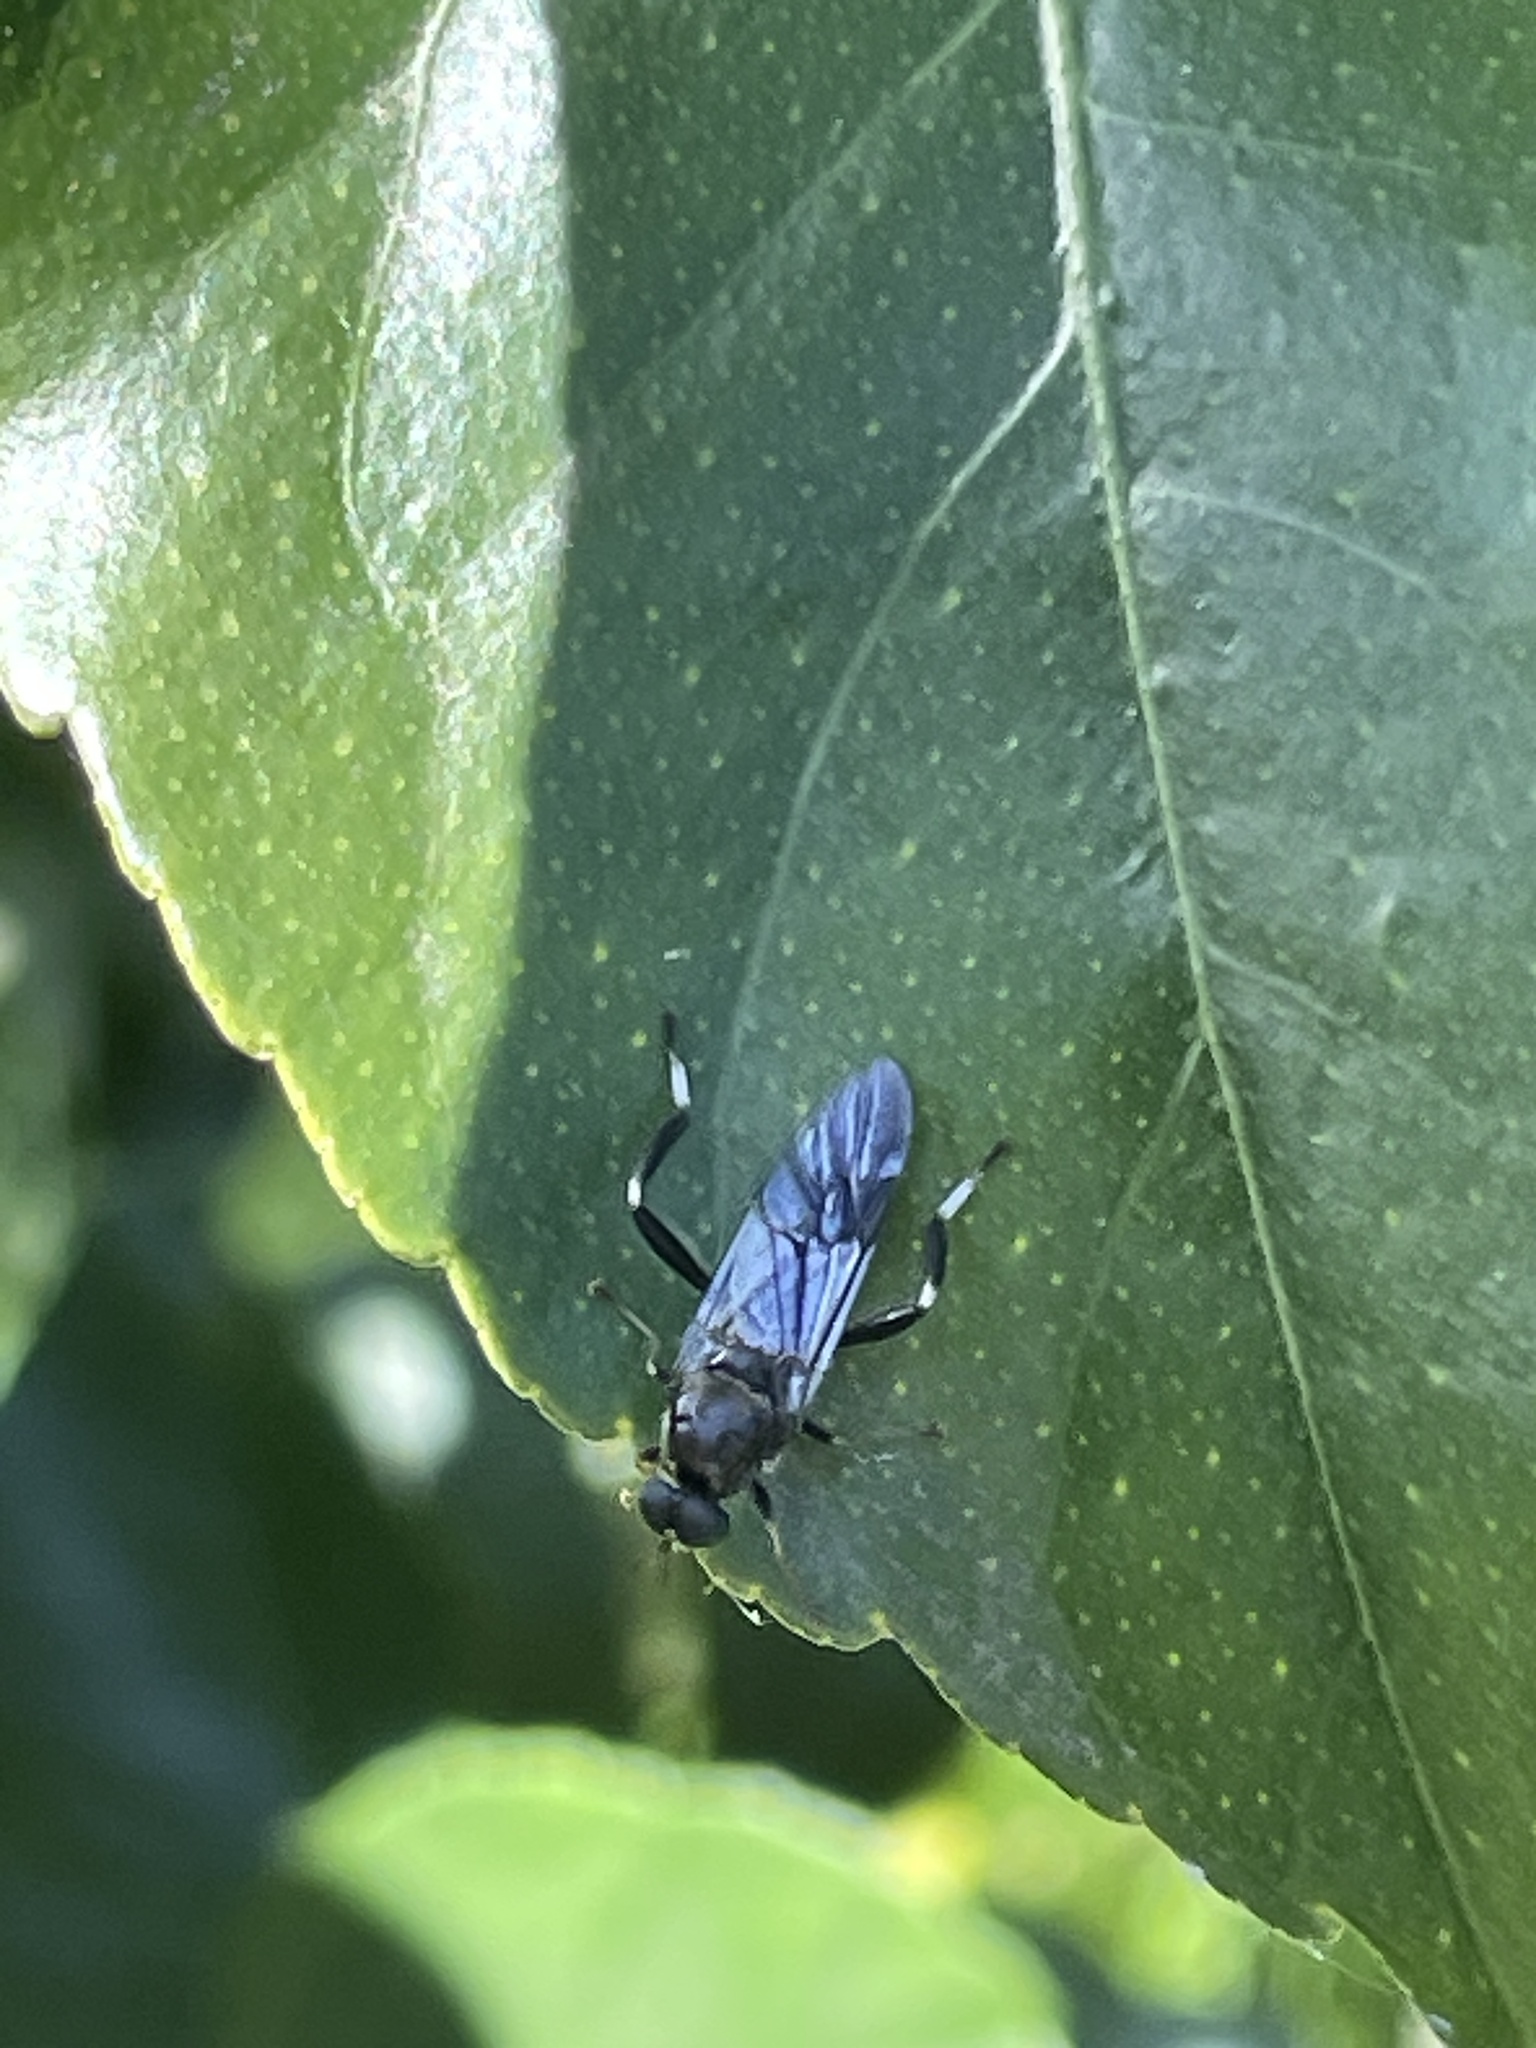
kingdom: Animalia
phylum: Arthropoda
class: Insecta
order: Diptera
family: Stratiomyidae
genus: Exaireta
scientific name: Exaireta spinigera
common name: Blue soldier fly
